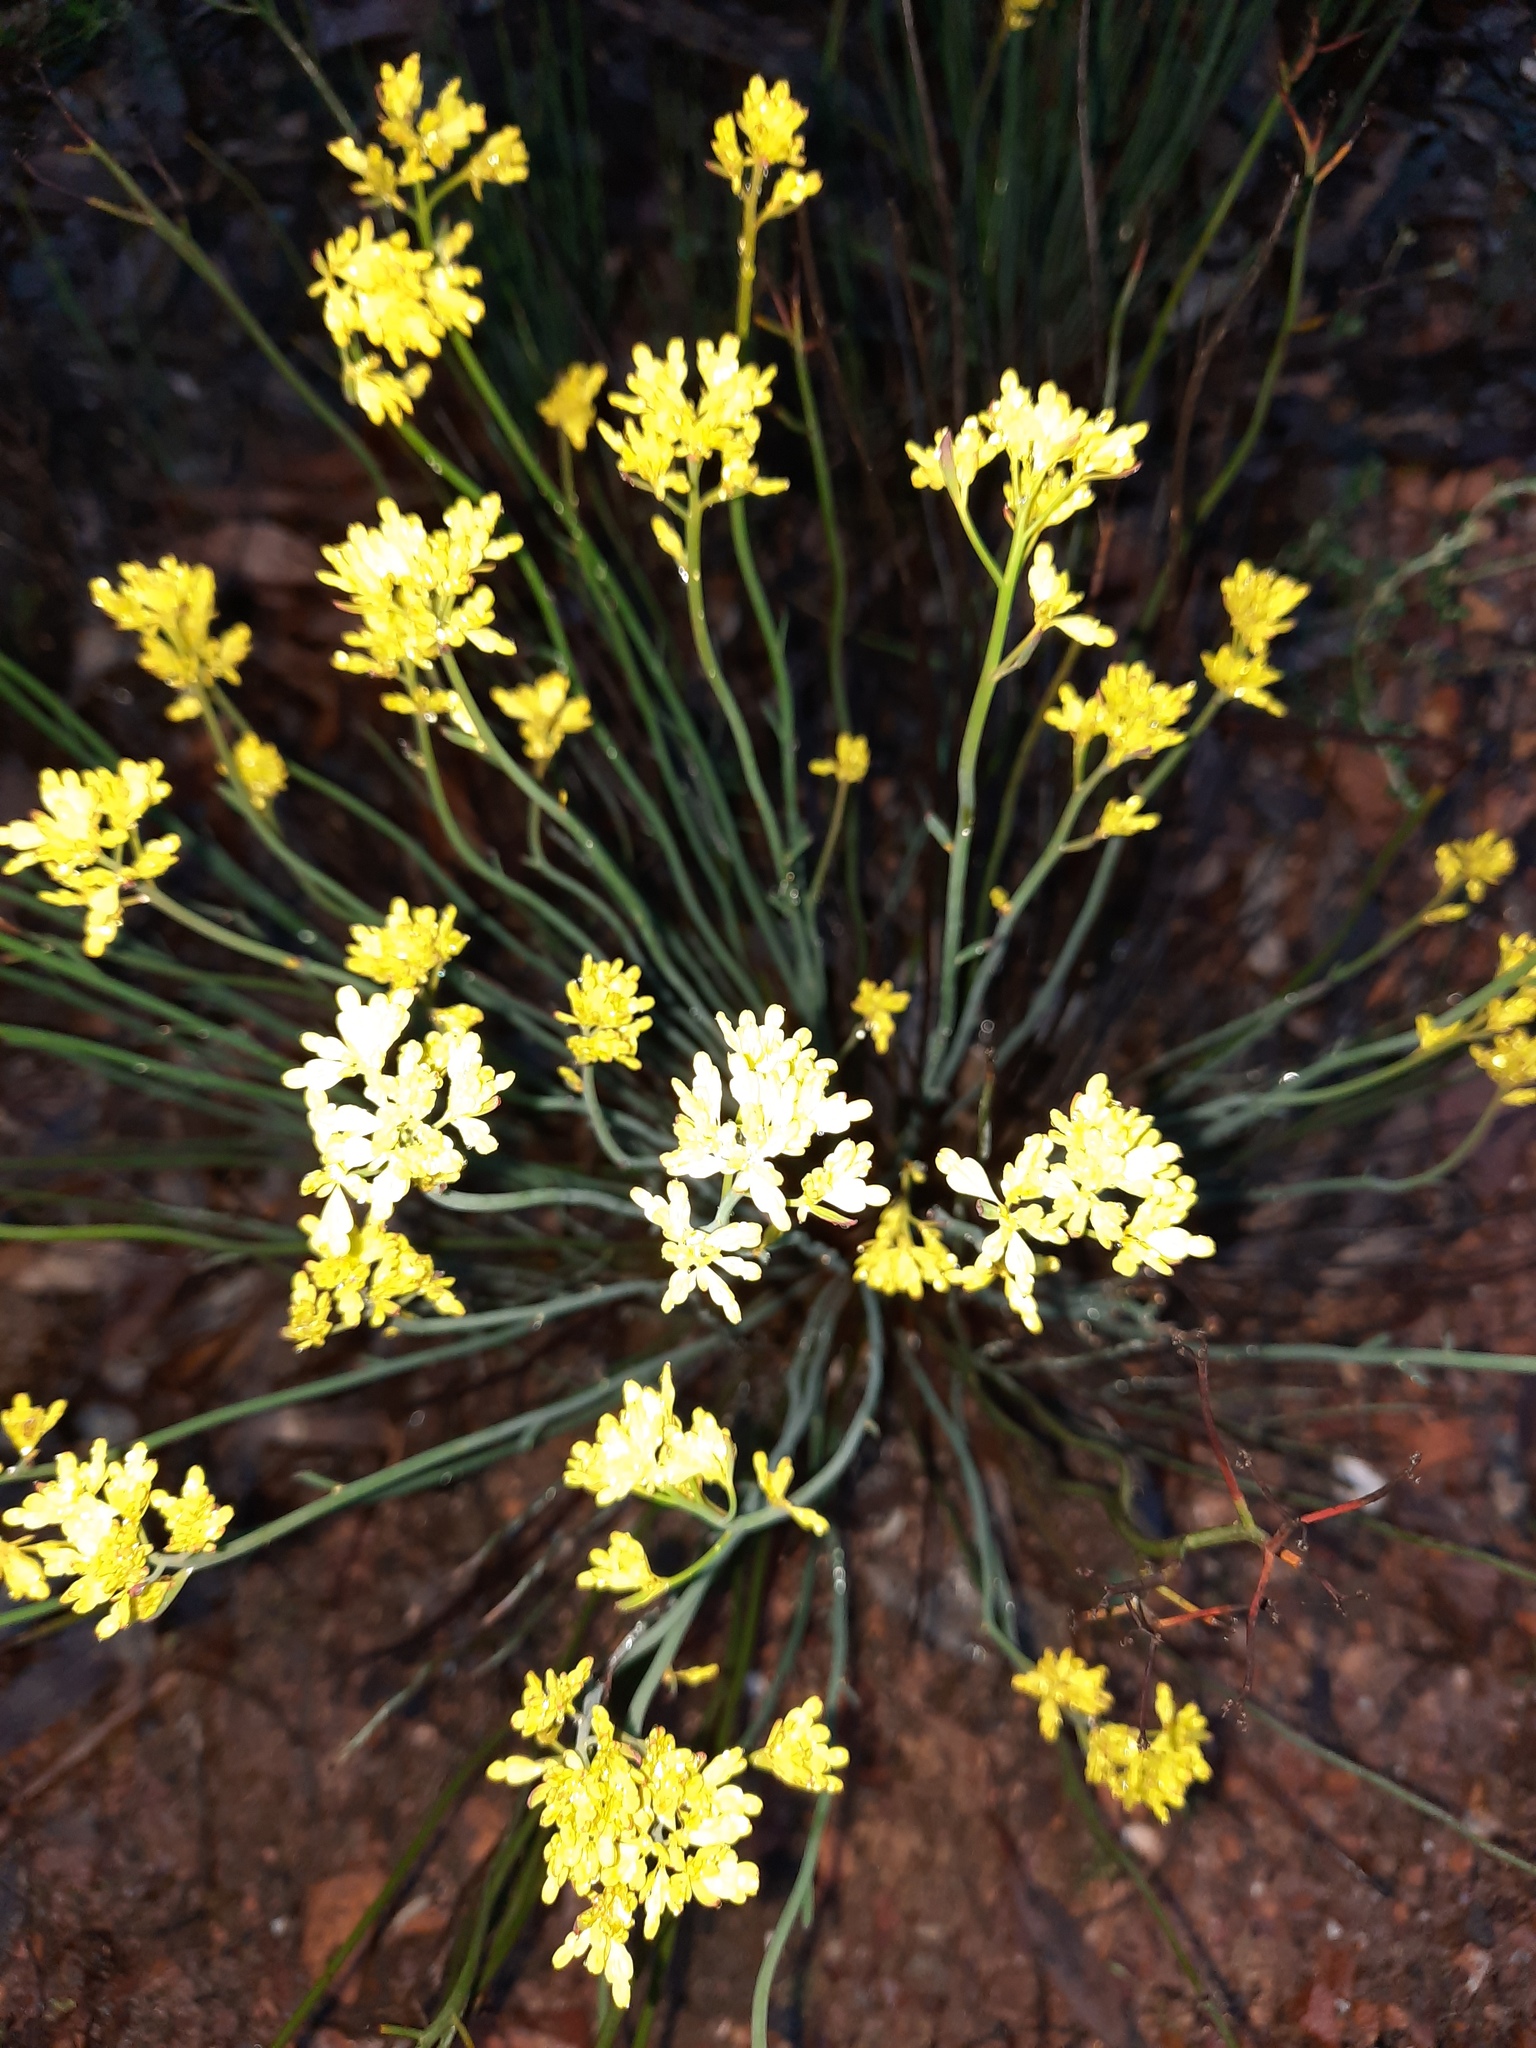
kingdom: Plantae
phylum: Tracheophyta
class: Magnoliopsida
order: Saxifragales
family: Haloragaceae
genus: Glischrocaryon
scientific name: Glischrocaryon behrii
